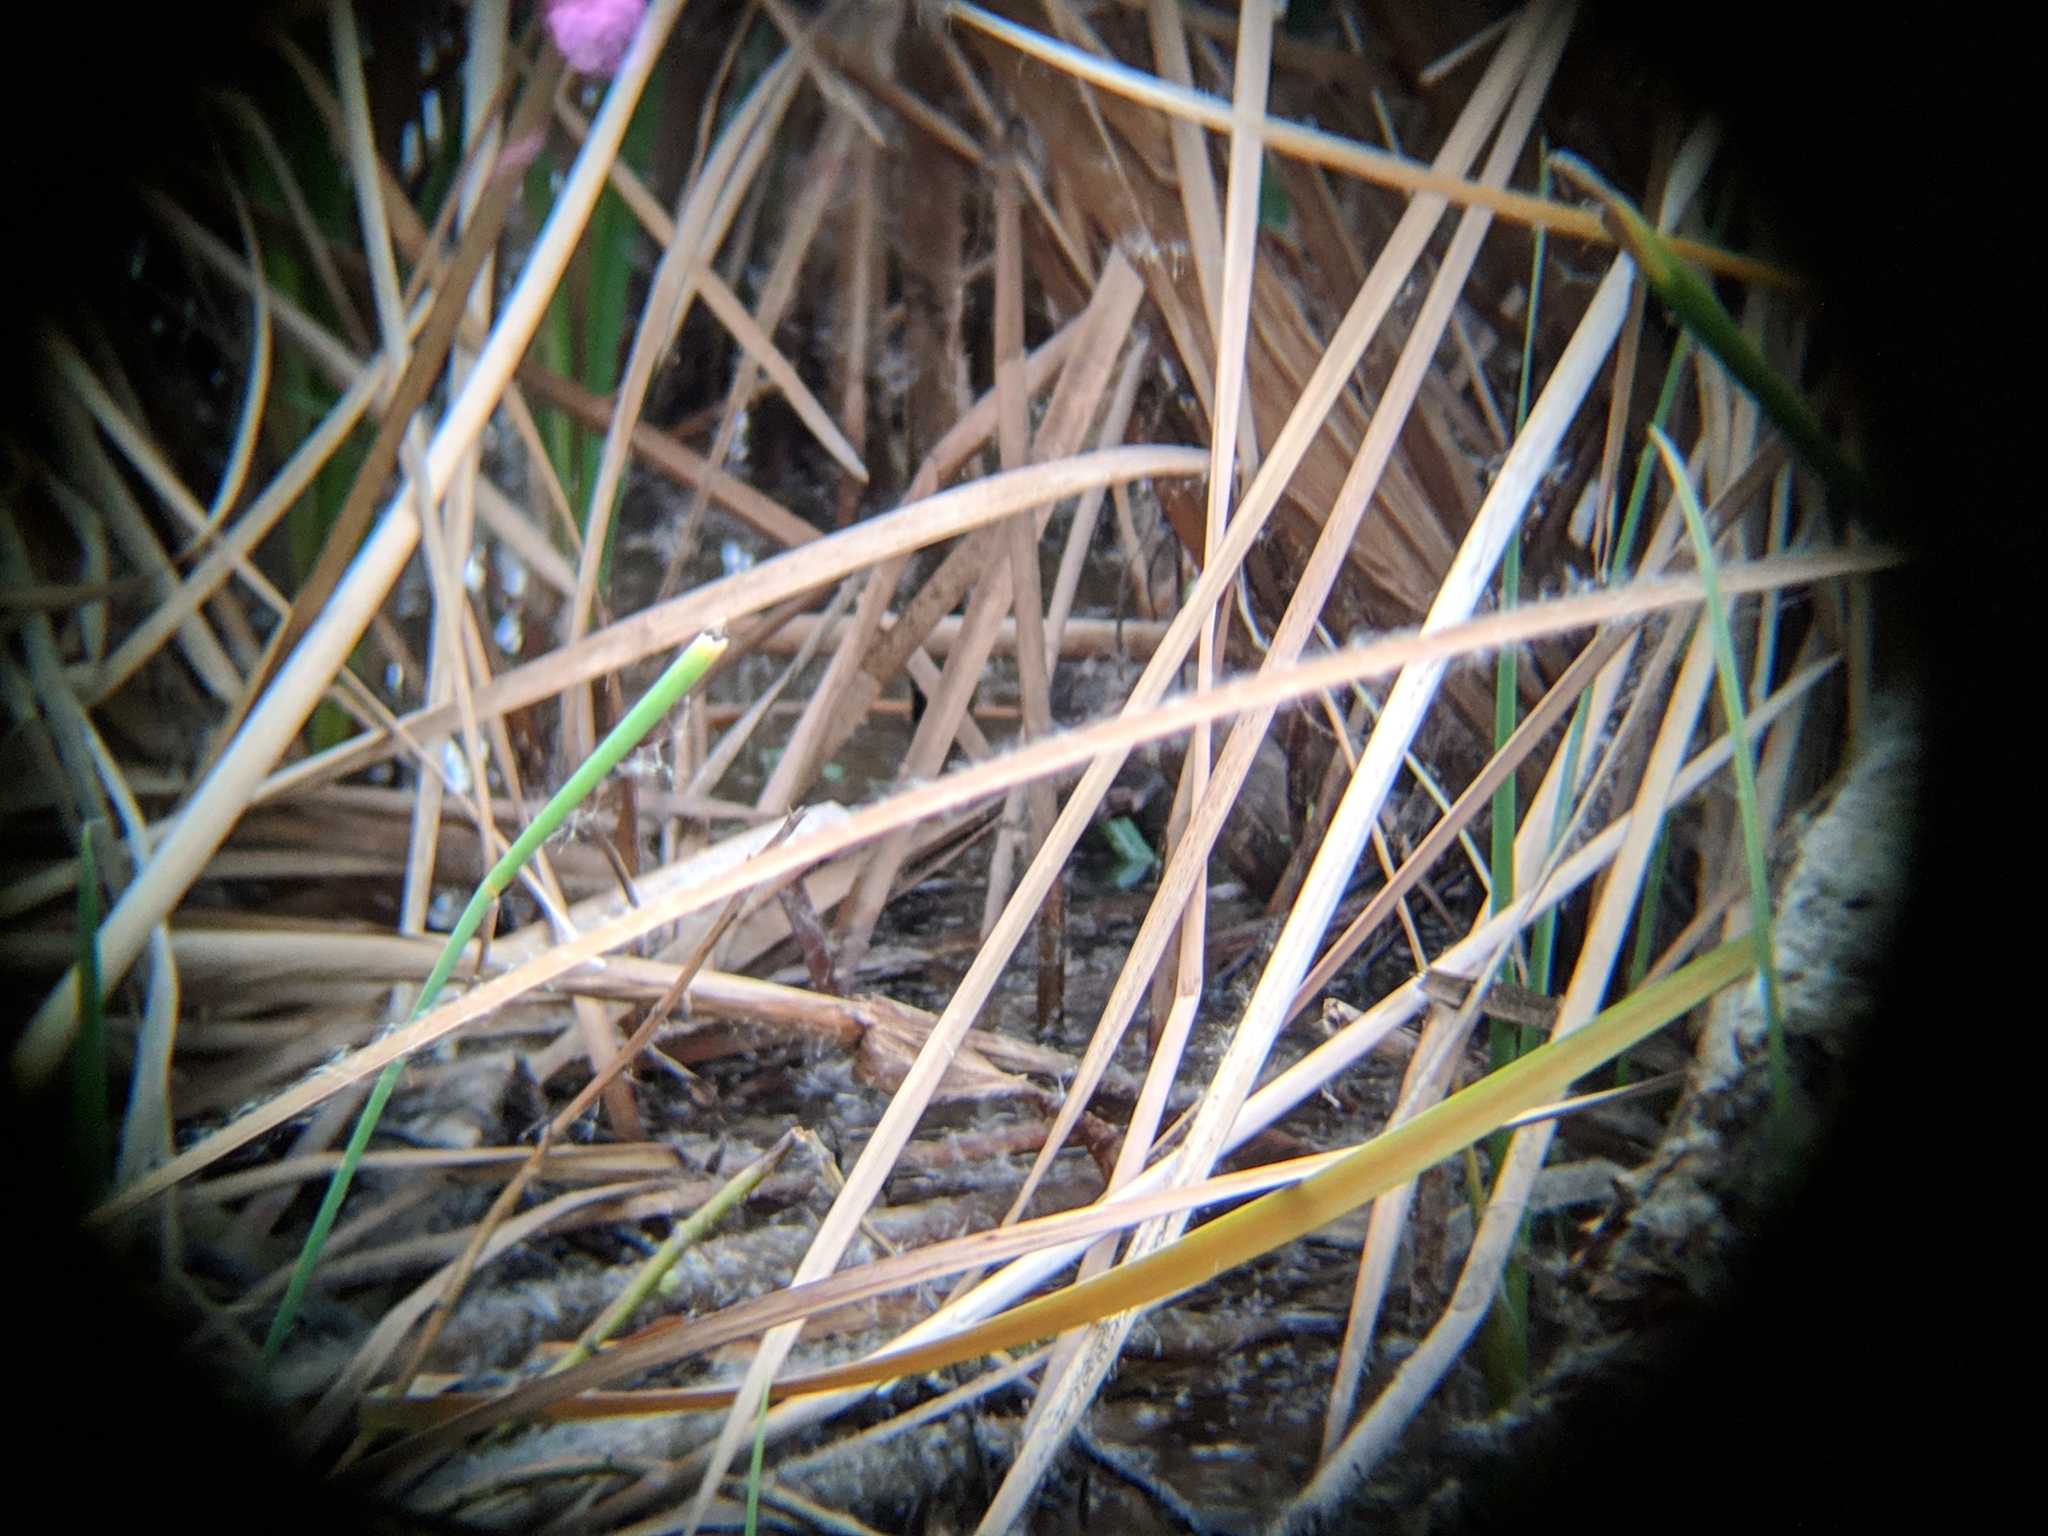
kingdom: Animalia
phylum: Chordata
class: Mammalia
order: Rodentia
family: Cricetidae
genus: Ondatra
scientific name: Ondatra zibethicus
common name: Muskrat
